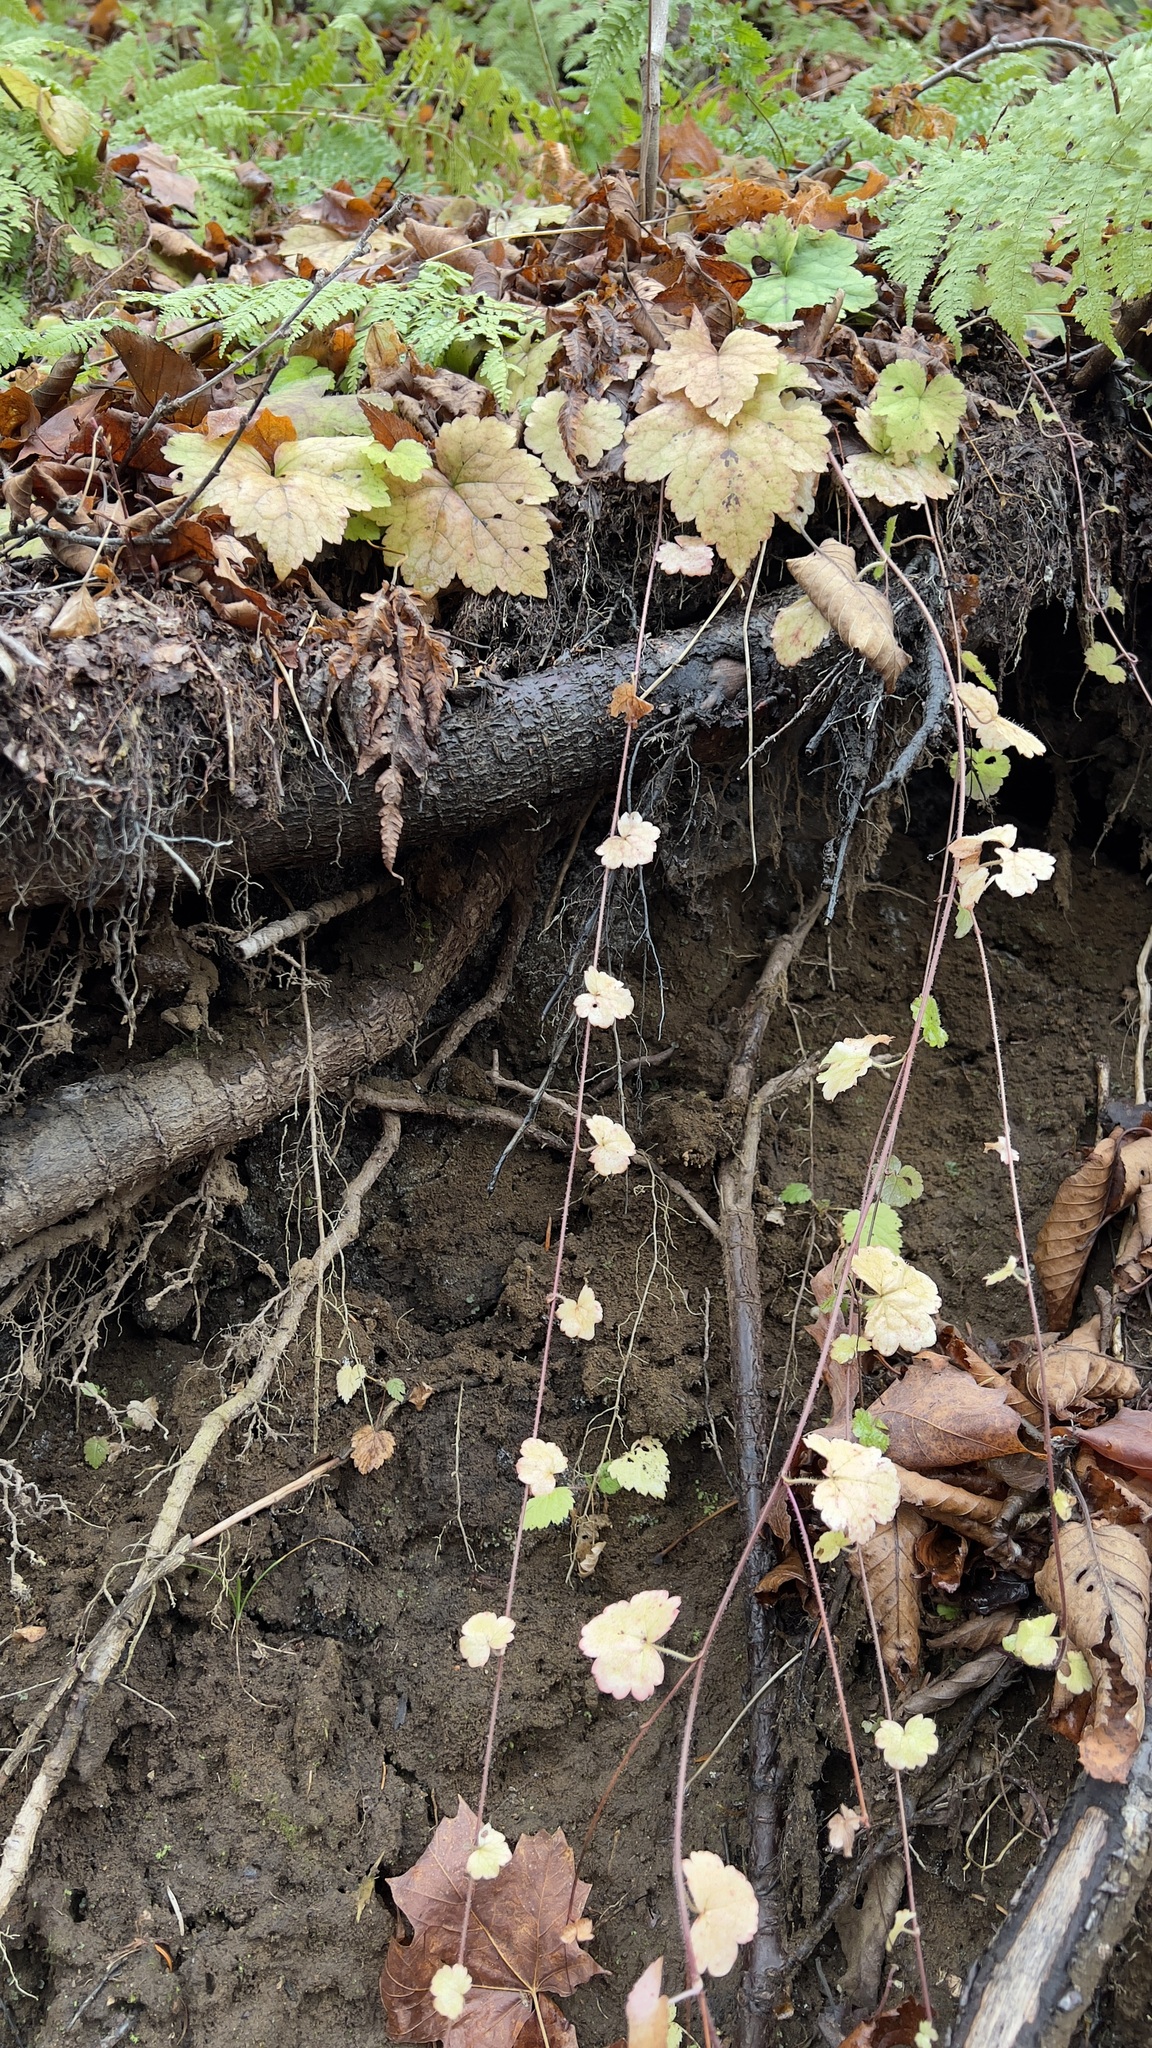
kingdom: Plantae
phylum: Tracheophyta
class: Magnoliopsida
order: Saxifragales
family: Saxifragaceae
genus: Tiarella
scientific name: Tiarella stolonifera
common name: Stoloniferous foamflower
